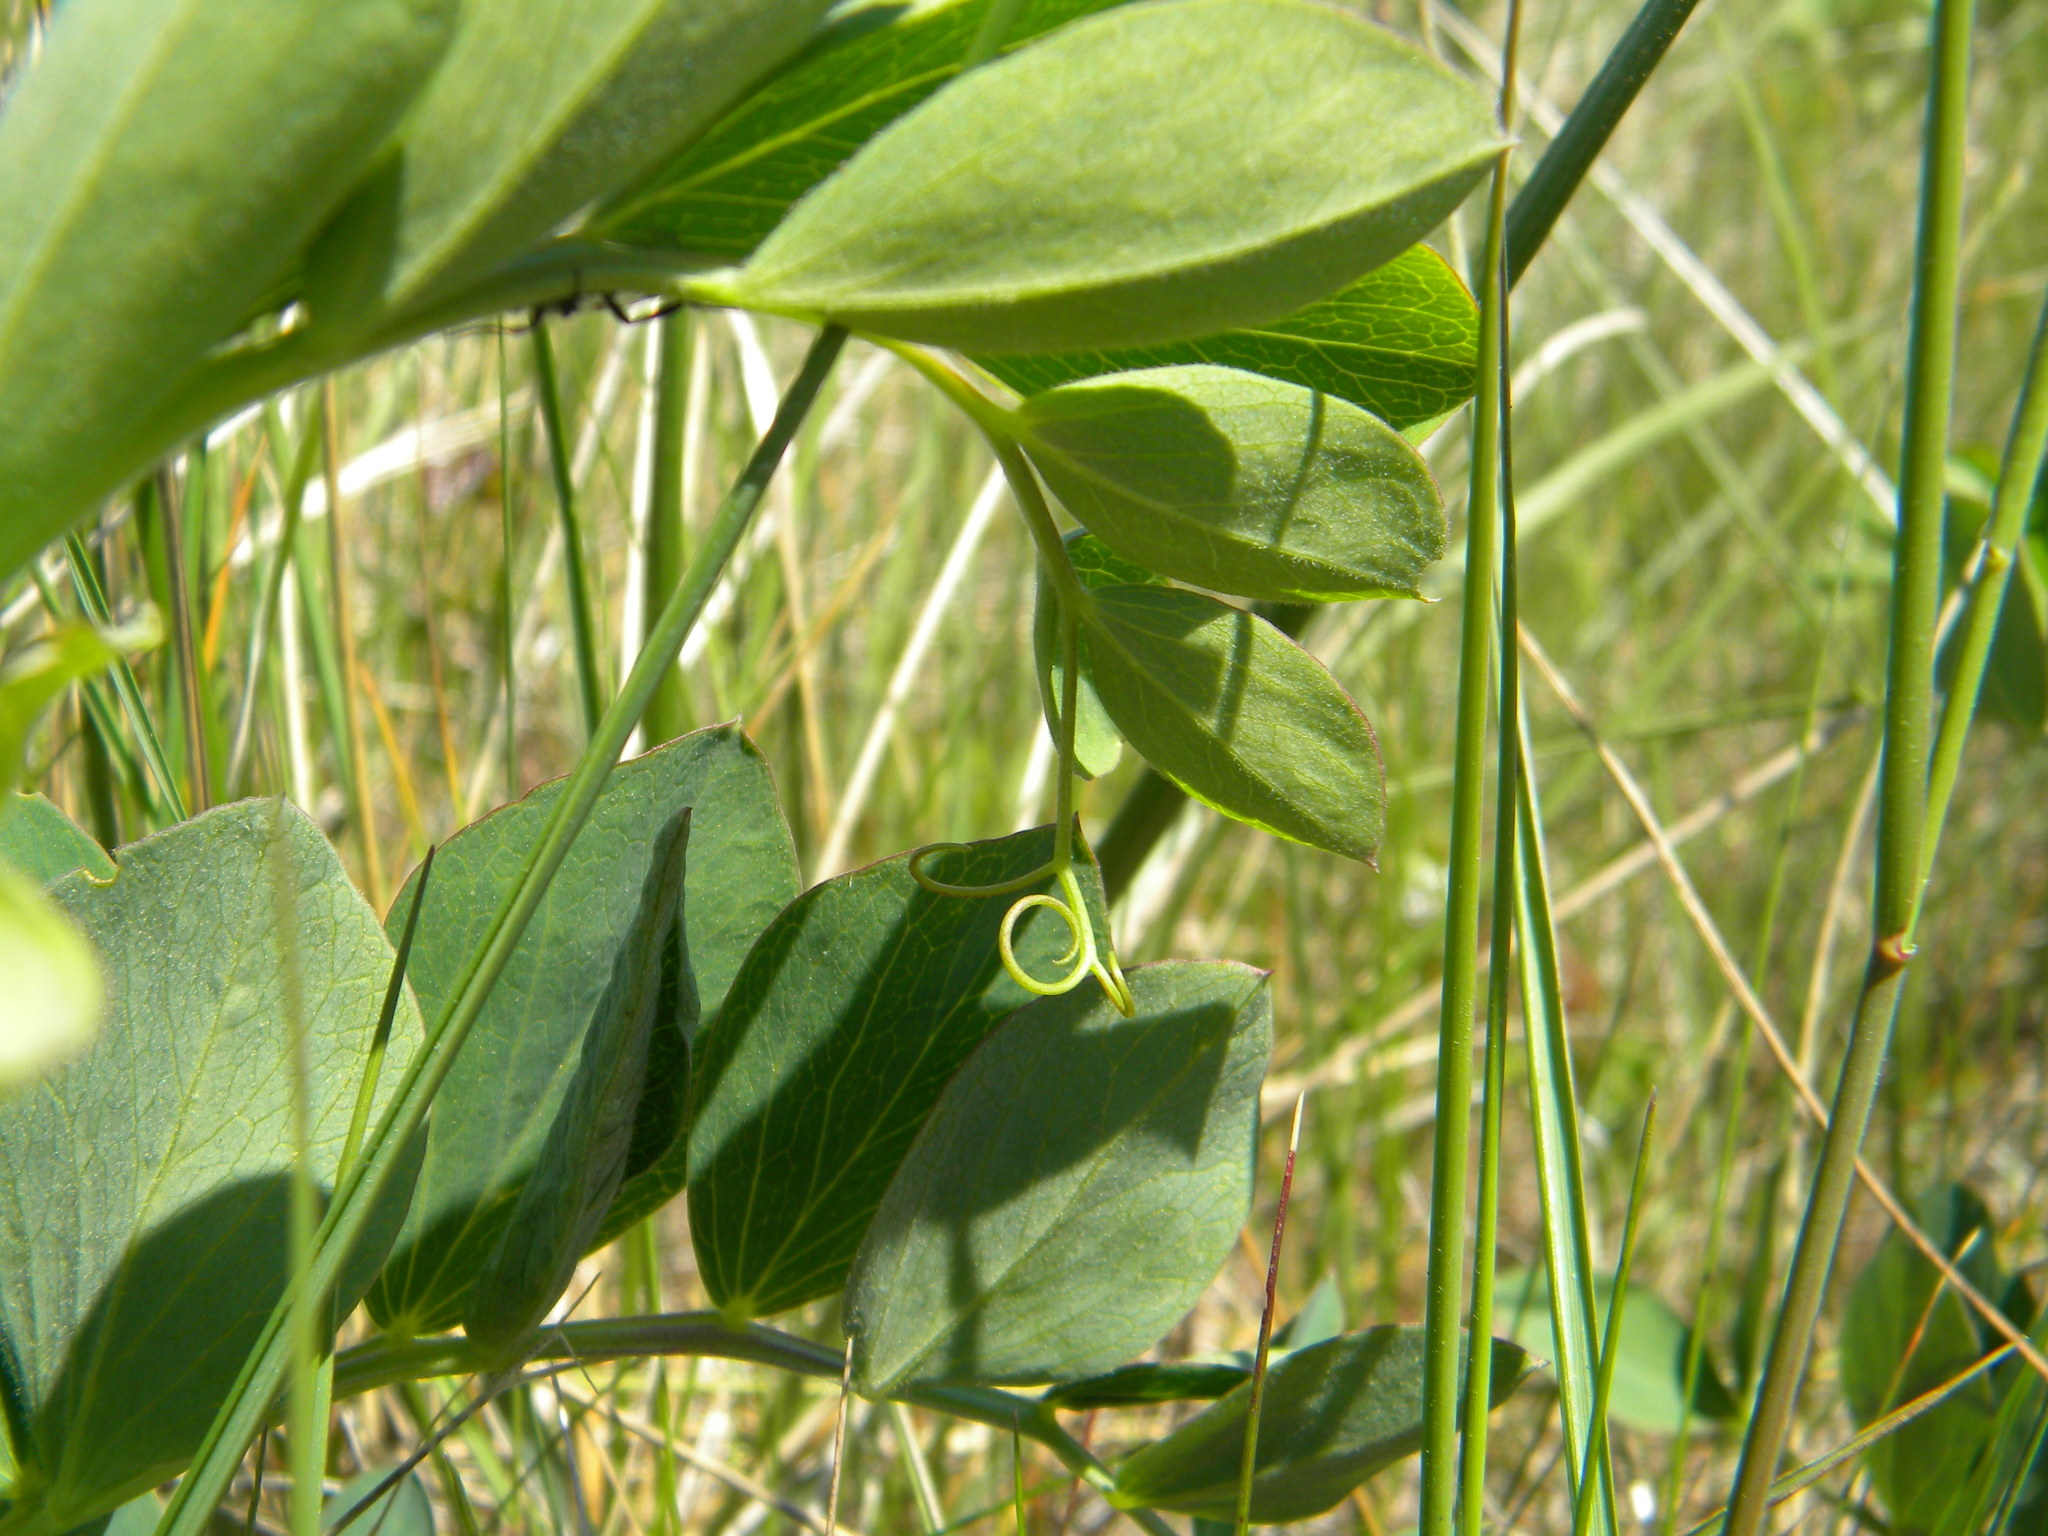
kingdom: Plantae
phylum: Tracheophyta
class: Magnoliopsida
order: Fabales
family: Fabaceae
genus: Lathyrus
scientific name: Lathyrus japonicus
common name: Sea pea
